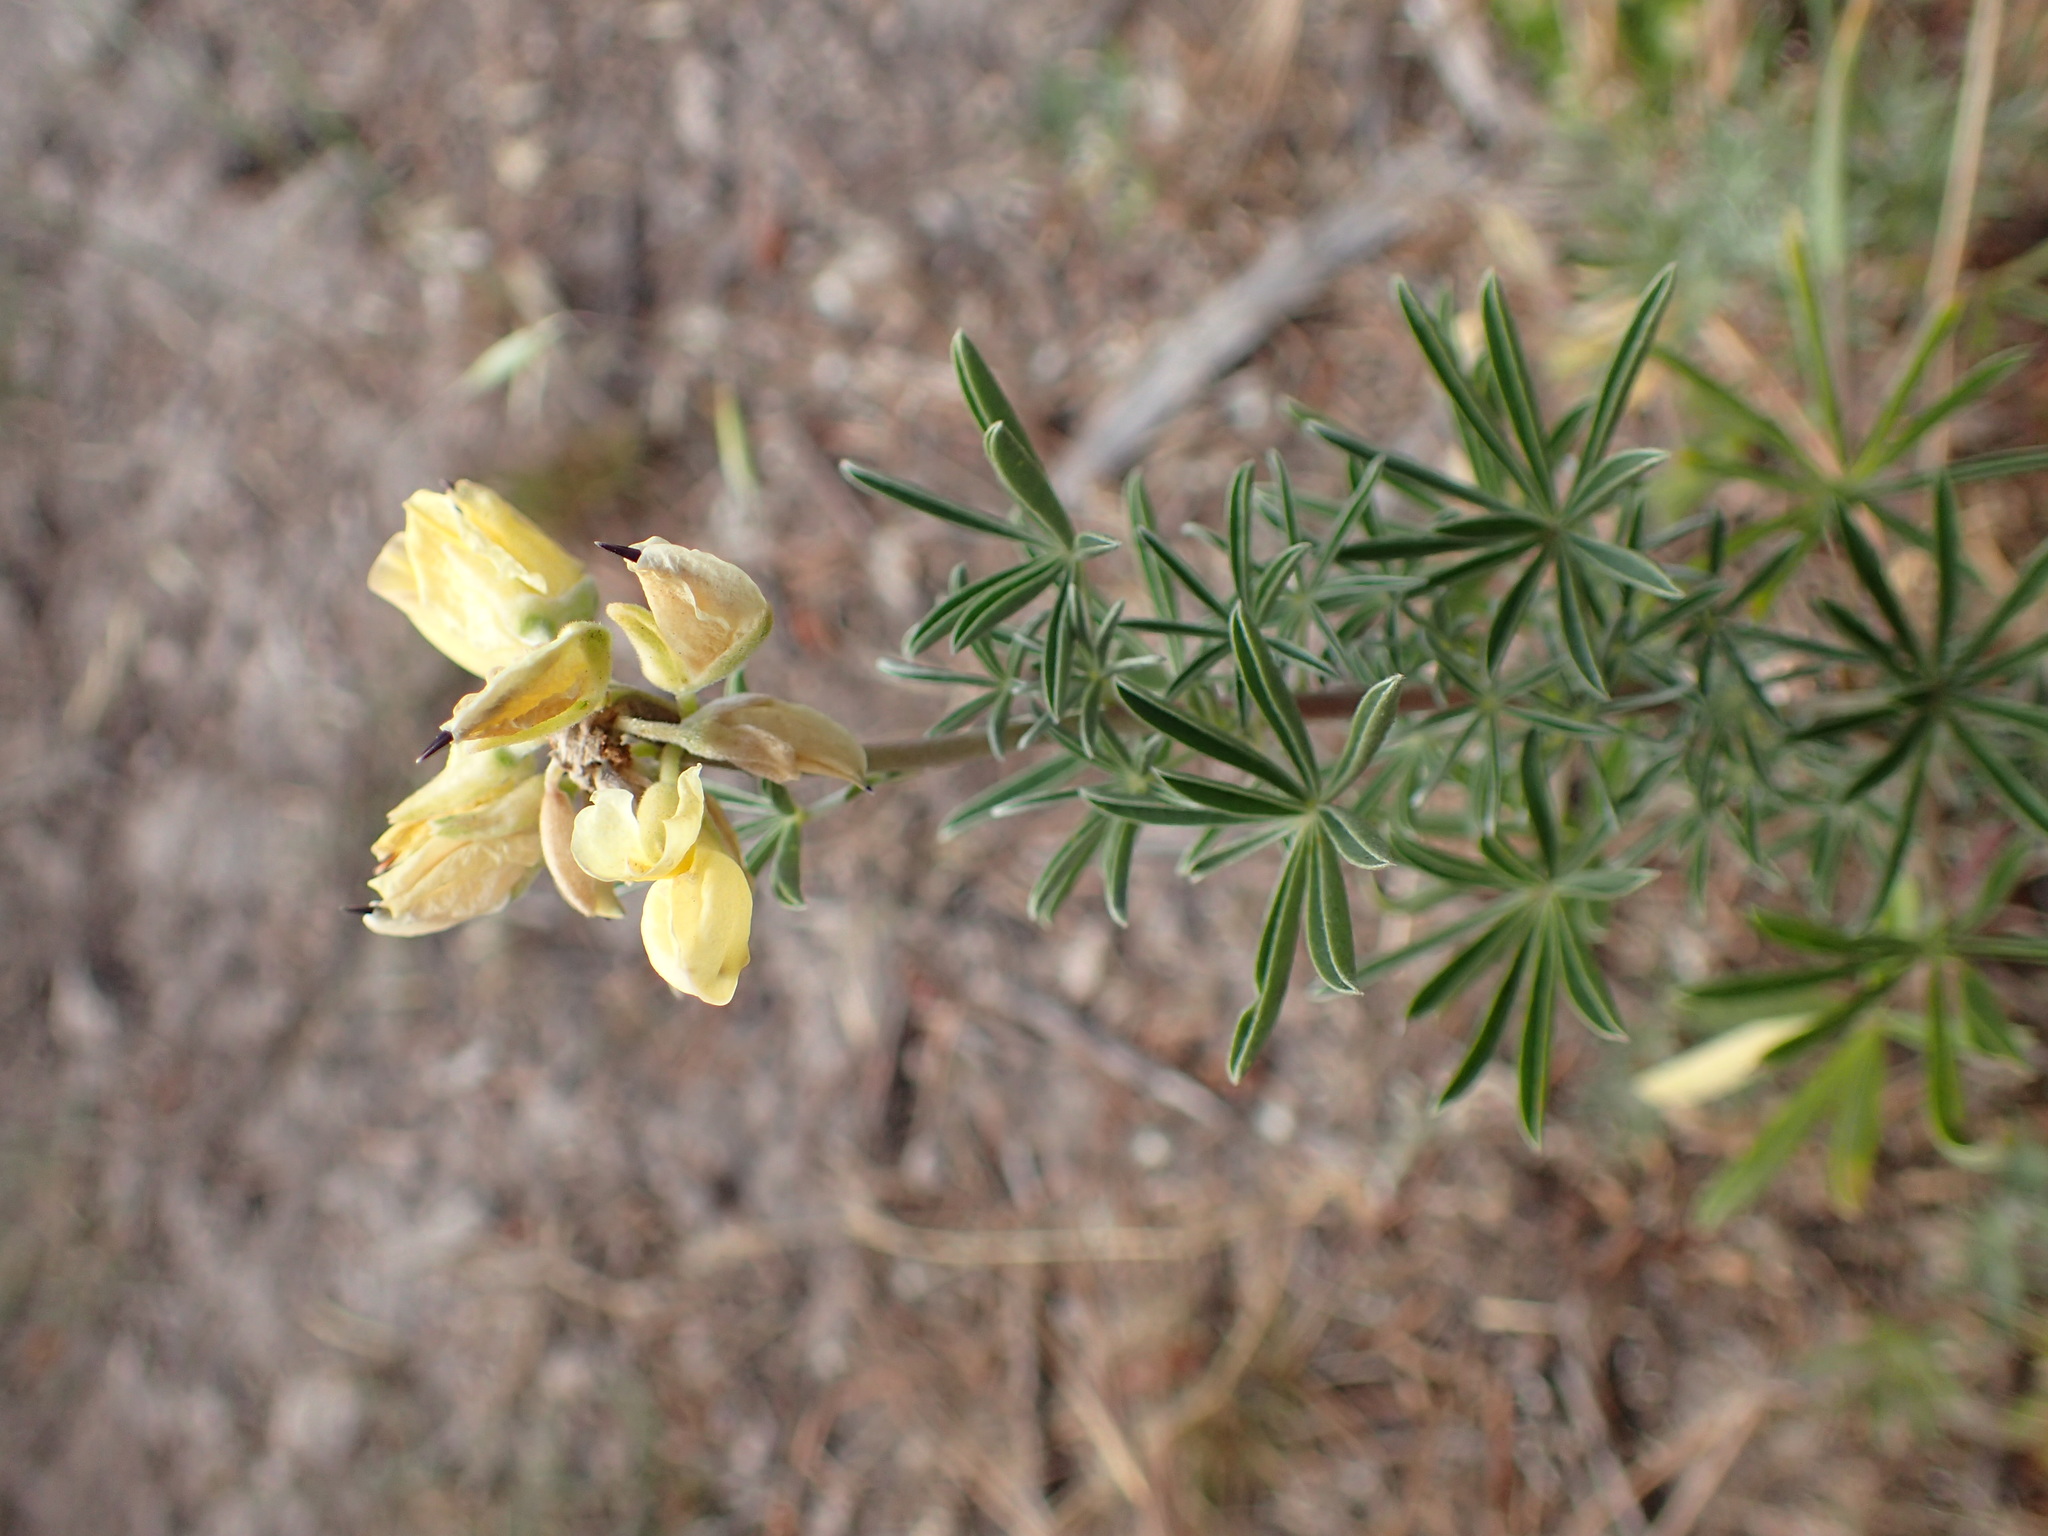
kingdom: Plantae
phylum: Tracheophyta
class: Magnoliopsida
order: Fabales
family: Fabaceae
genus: Lupinus
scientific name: Lupinus arboreus
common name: Yellow bush lupine
